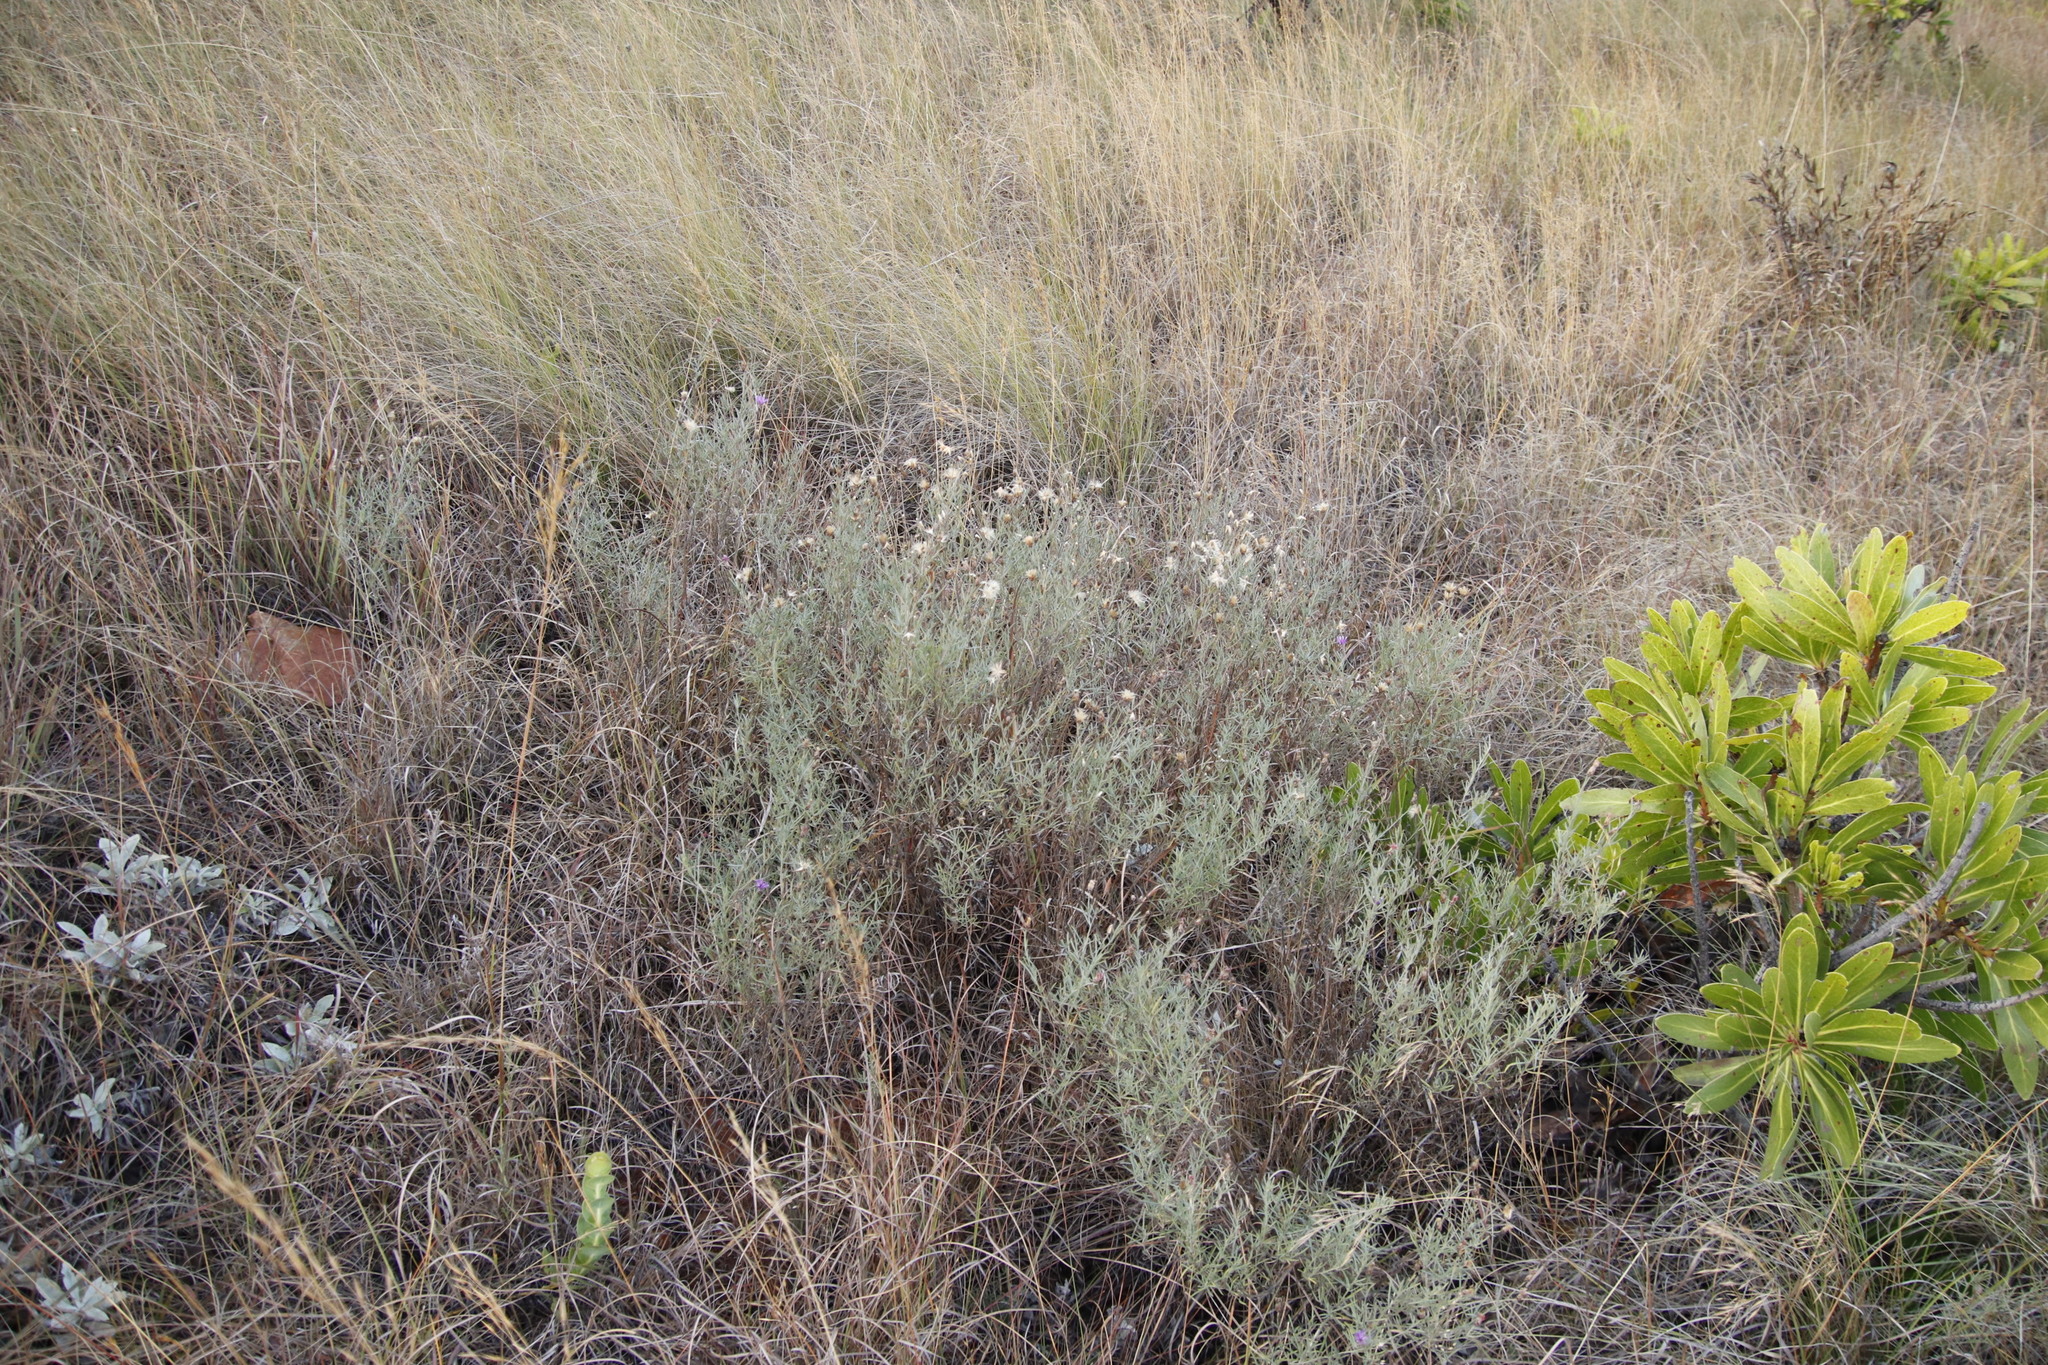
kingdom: Plantae
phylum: Tracheophyta
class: Magnoliopsida
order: Proteales
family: Proteaceae
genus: Protea
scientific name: Protea rubropilosa
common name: Escarpment sugarbush
